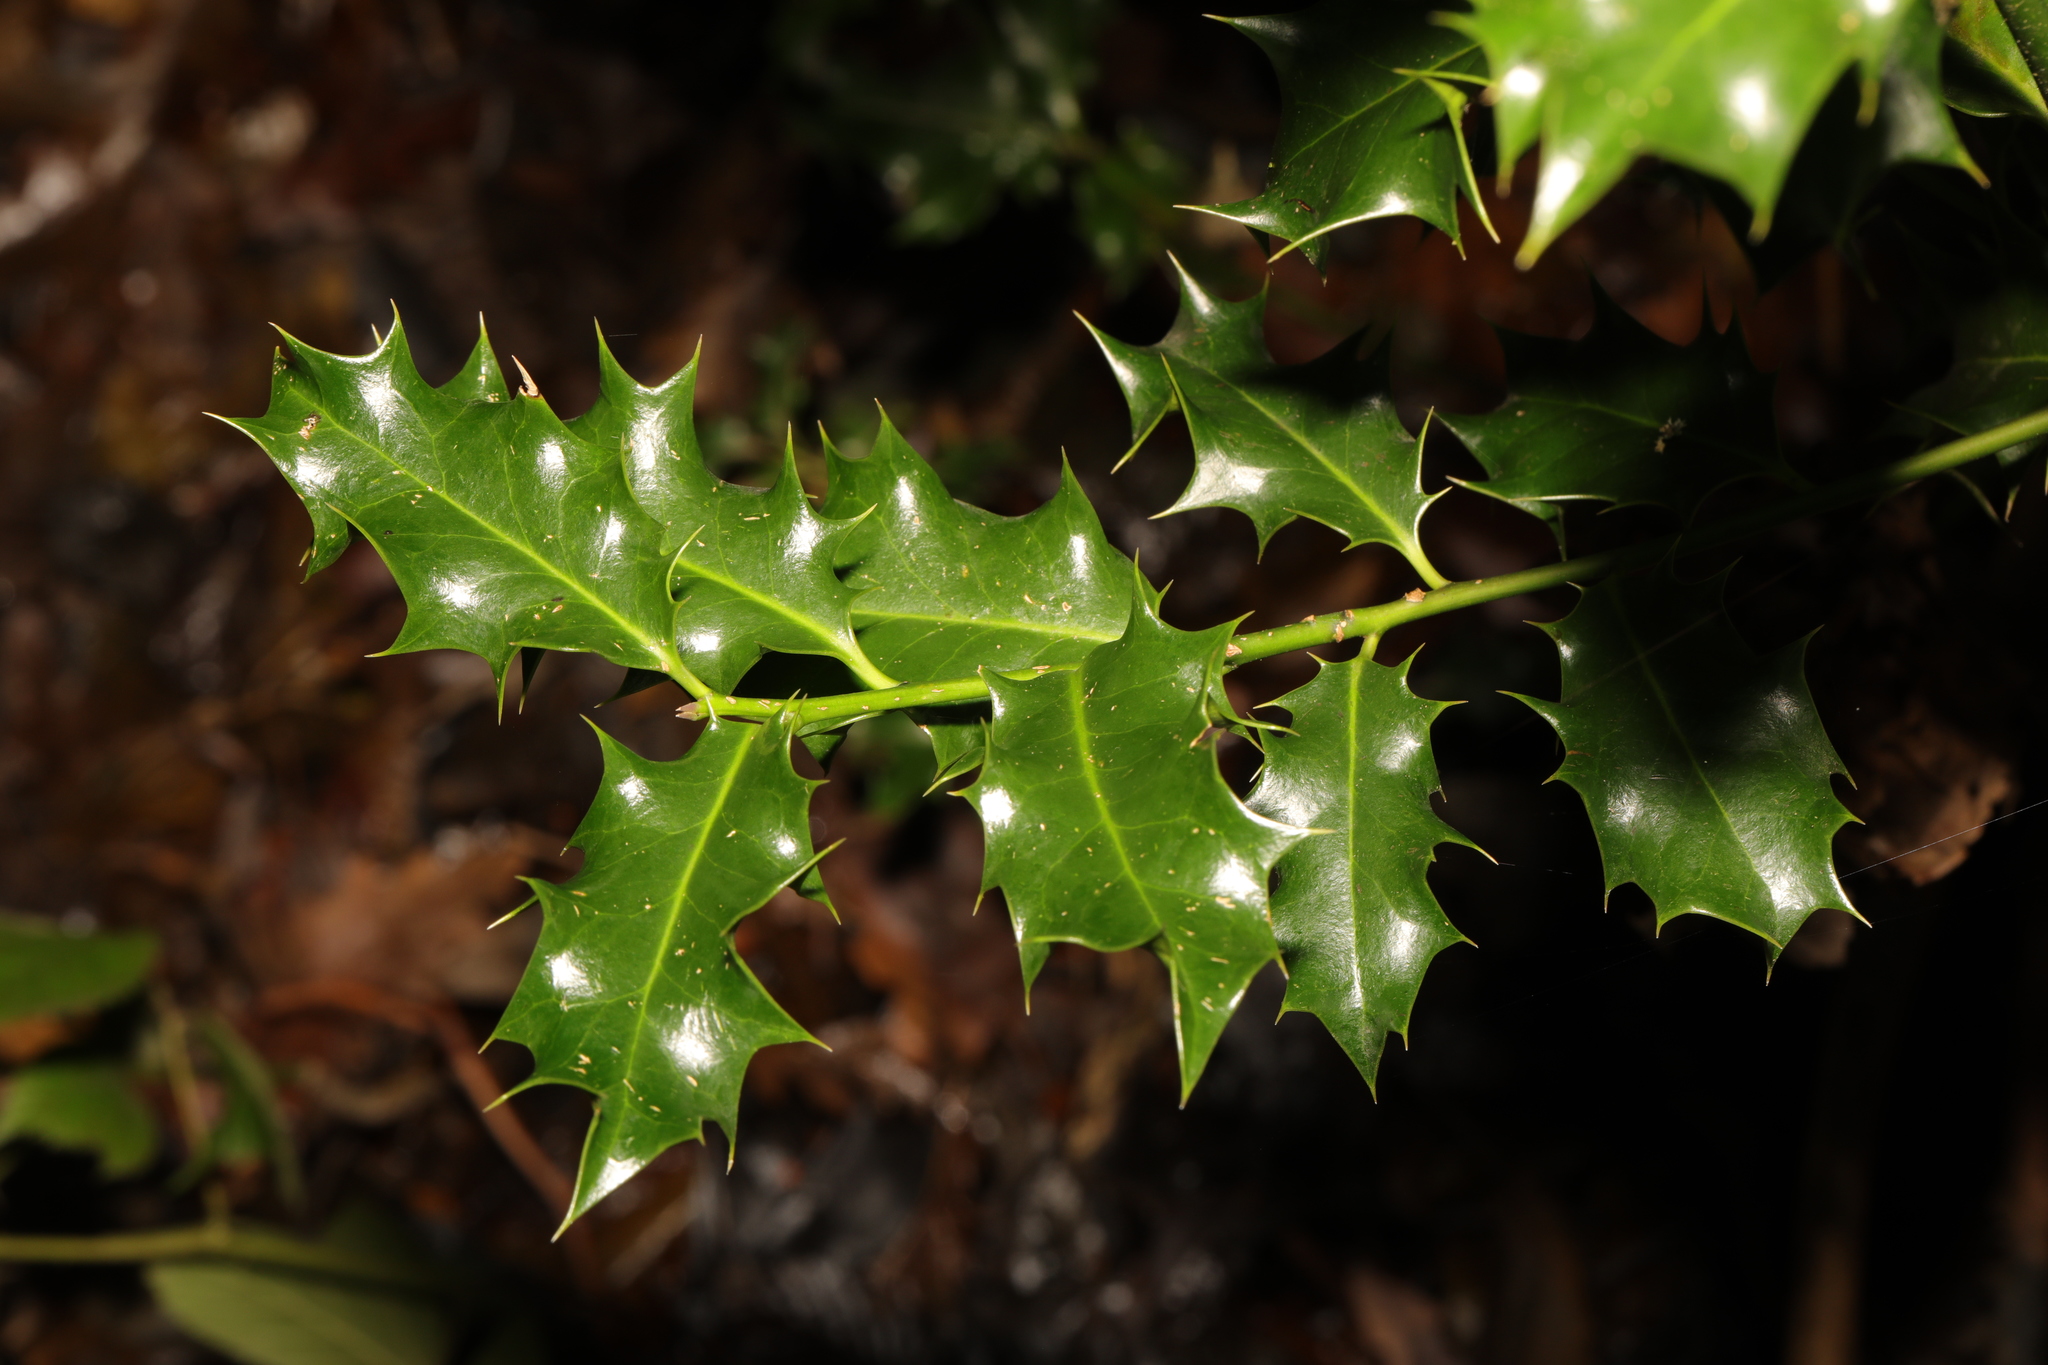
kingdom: Plantae
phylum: Tracheophyta
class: Magnoliopsida
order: Aquifoliales
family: Aquifoliaceae
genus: Ilex
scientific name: Ilex aquifolium
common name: English holly
